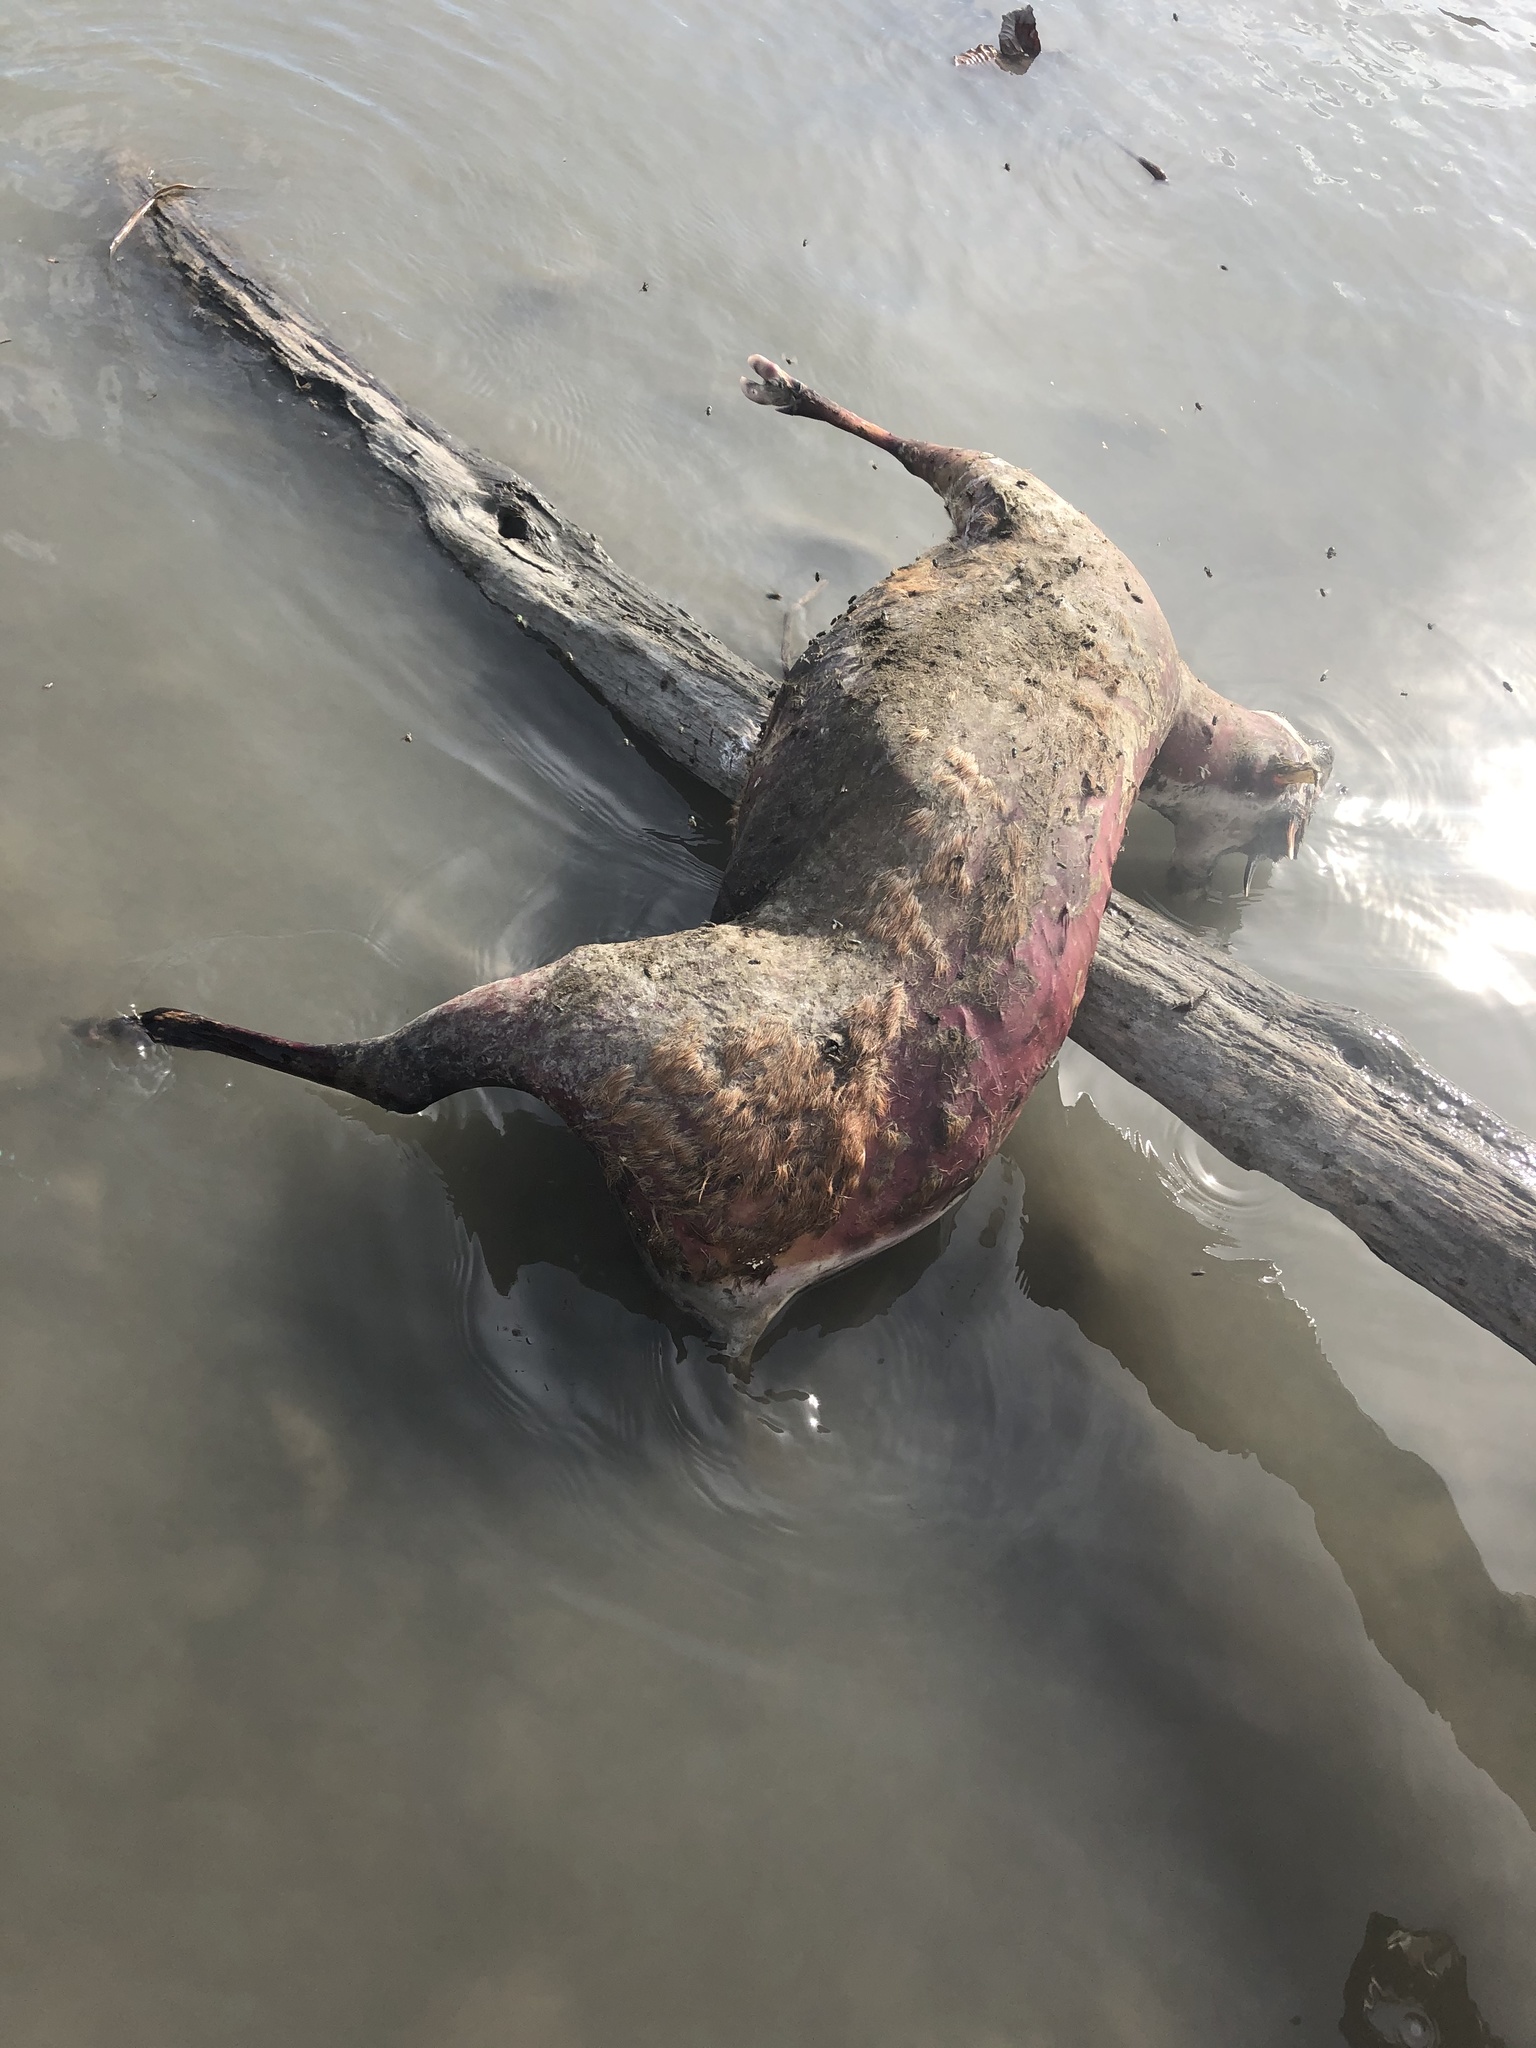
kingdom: Animalia
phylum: Chordata
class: Mammalia
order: Artiodactyla
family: Cervidae
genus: Mazama
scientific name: Mazama americana
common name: Red brocket
